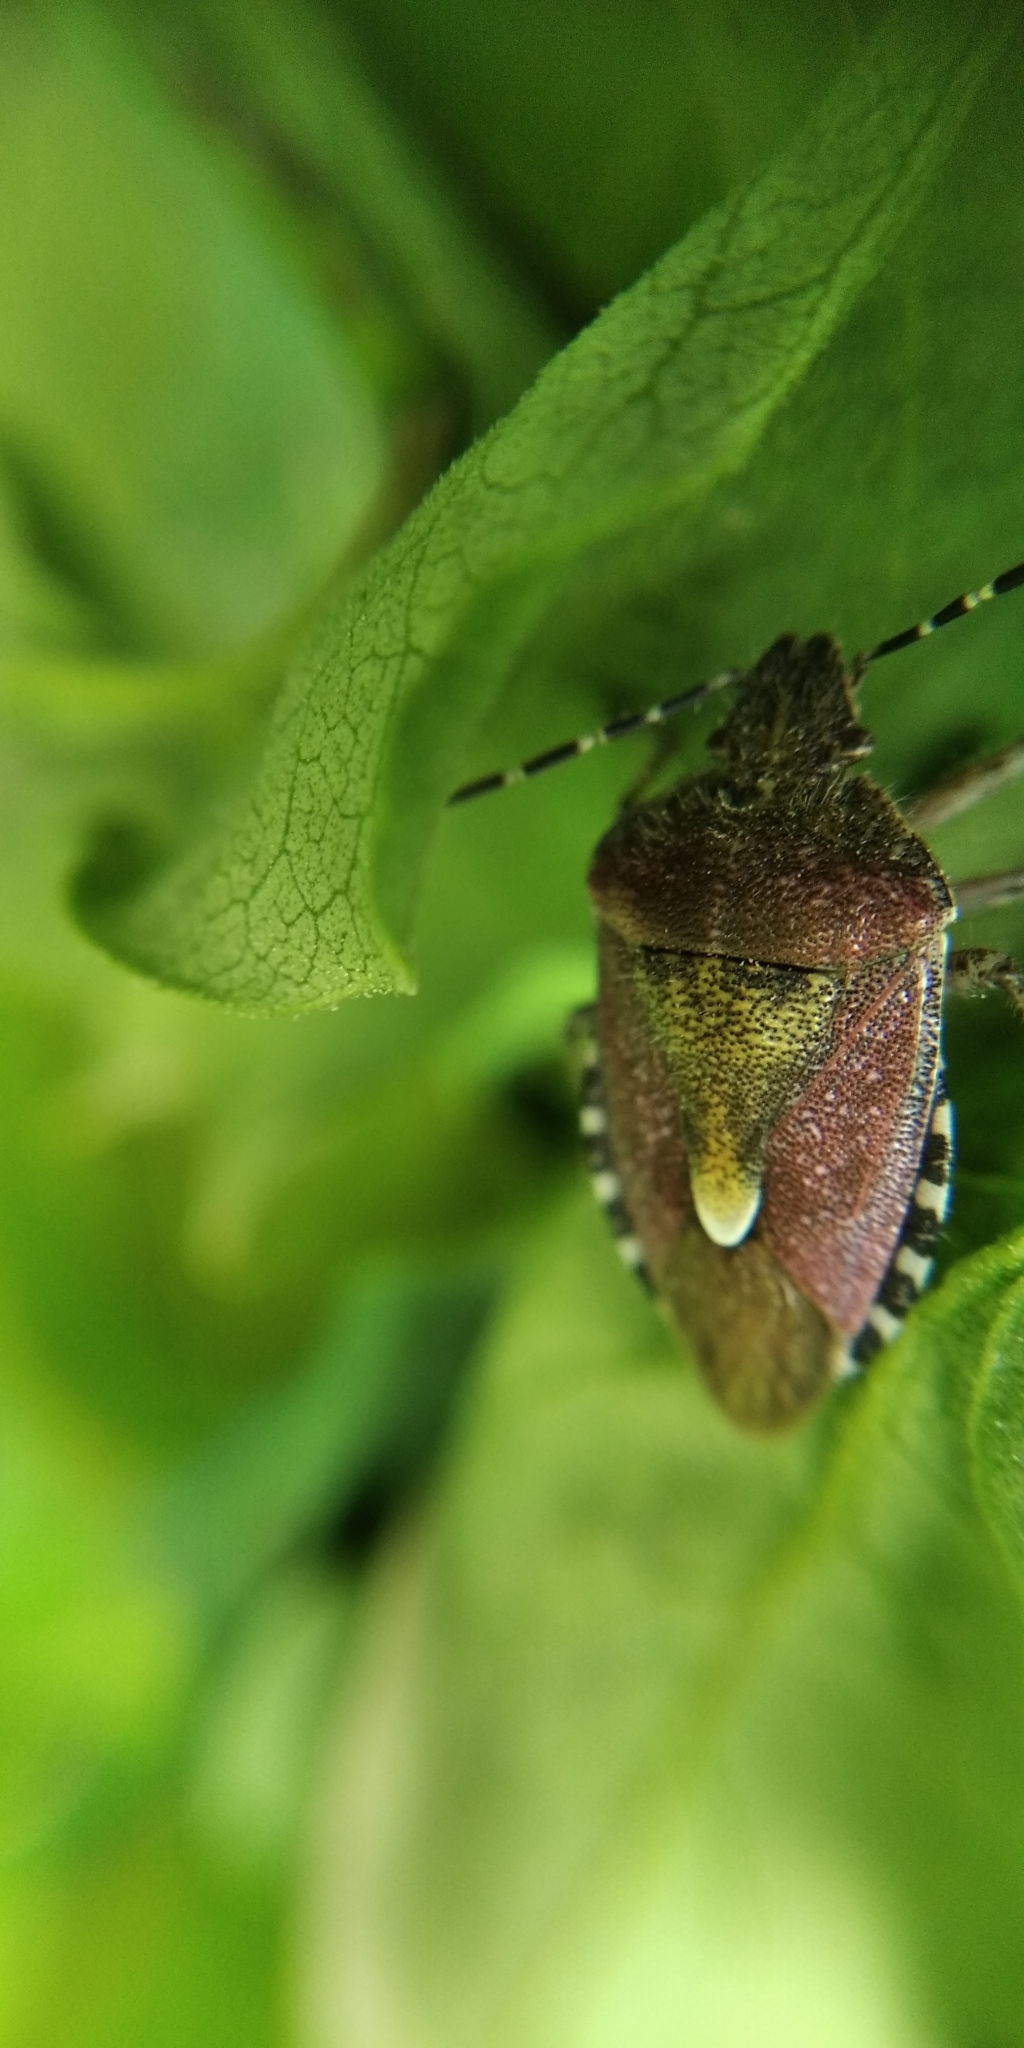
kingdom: Animalia
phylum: Arthropoda
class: Insecta
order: Hemiptera
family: Pentatomidae
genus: Dolycoris
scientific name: Dolycoris baccarum
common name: Sloe bug
